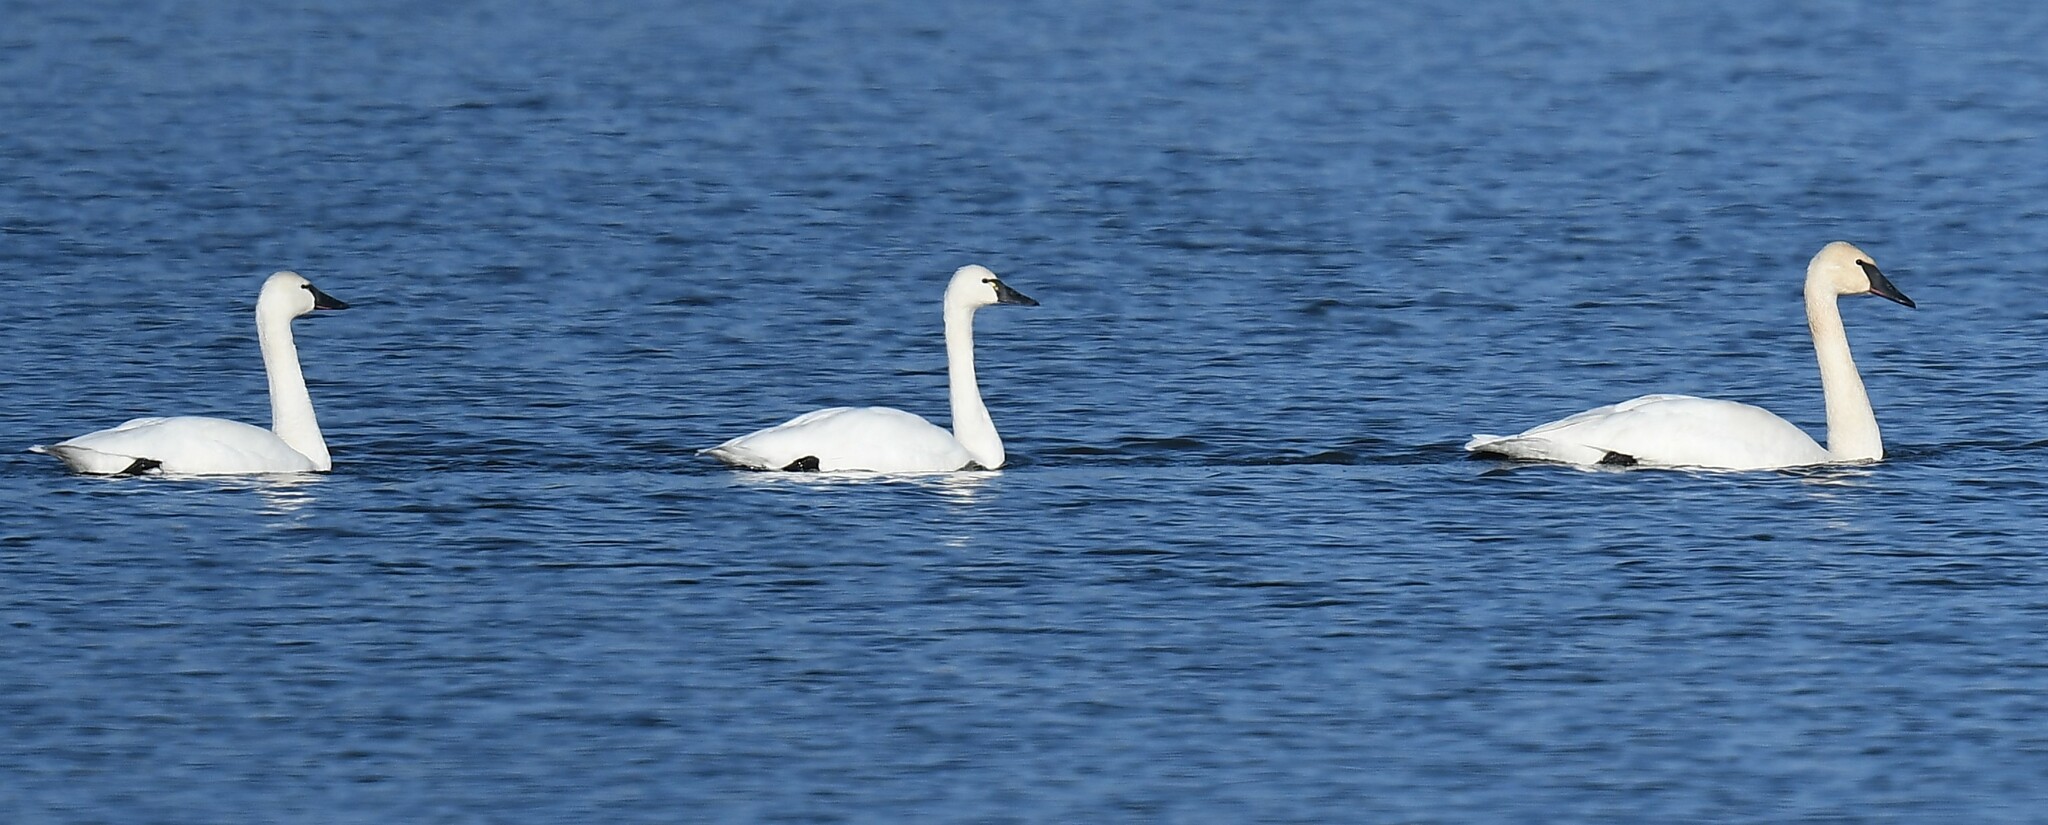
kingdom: Animalia
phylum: Chordata
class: Aves
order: Anseriformes
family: Anatidae
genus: Cygnus
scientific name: Cygnus columbianus
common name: Tundra swan
